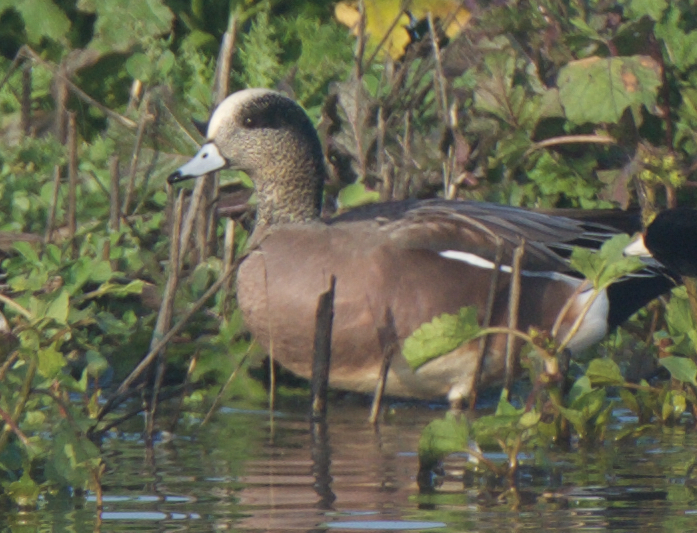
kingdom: Animalia
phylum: Chordata
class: Aves
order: Anseriformes
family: Anatidae
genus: Mareca
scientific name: Mareca americana
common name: American wigeon
